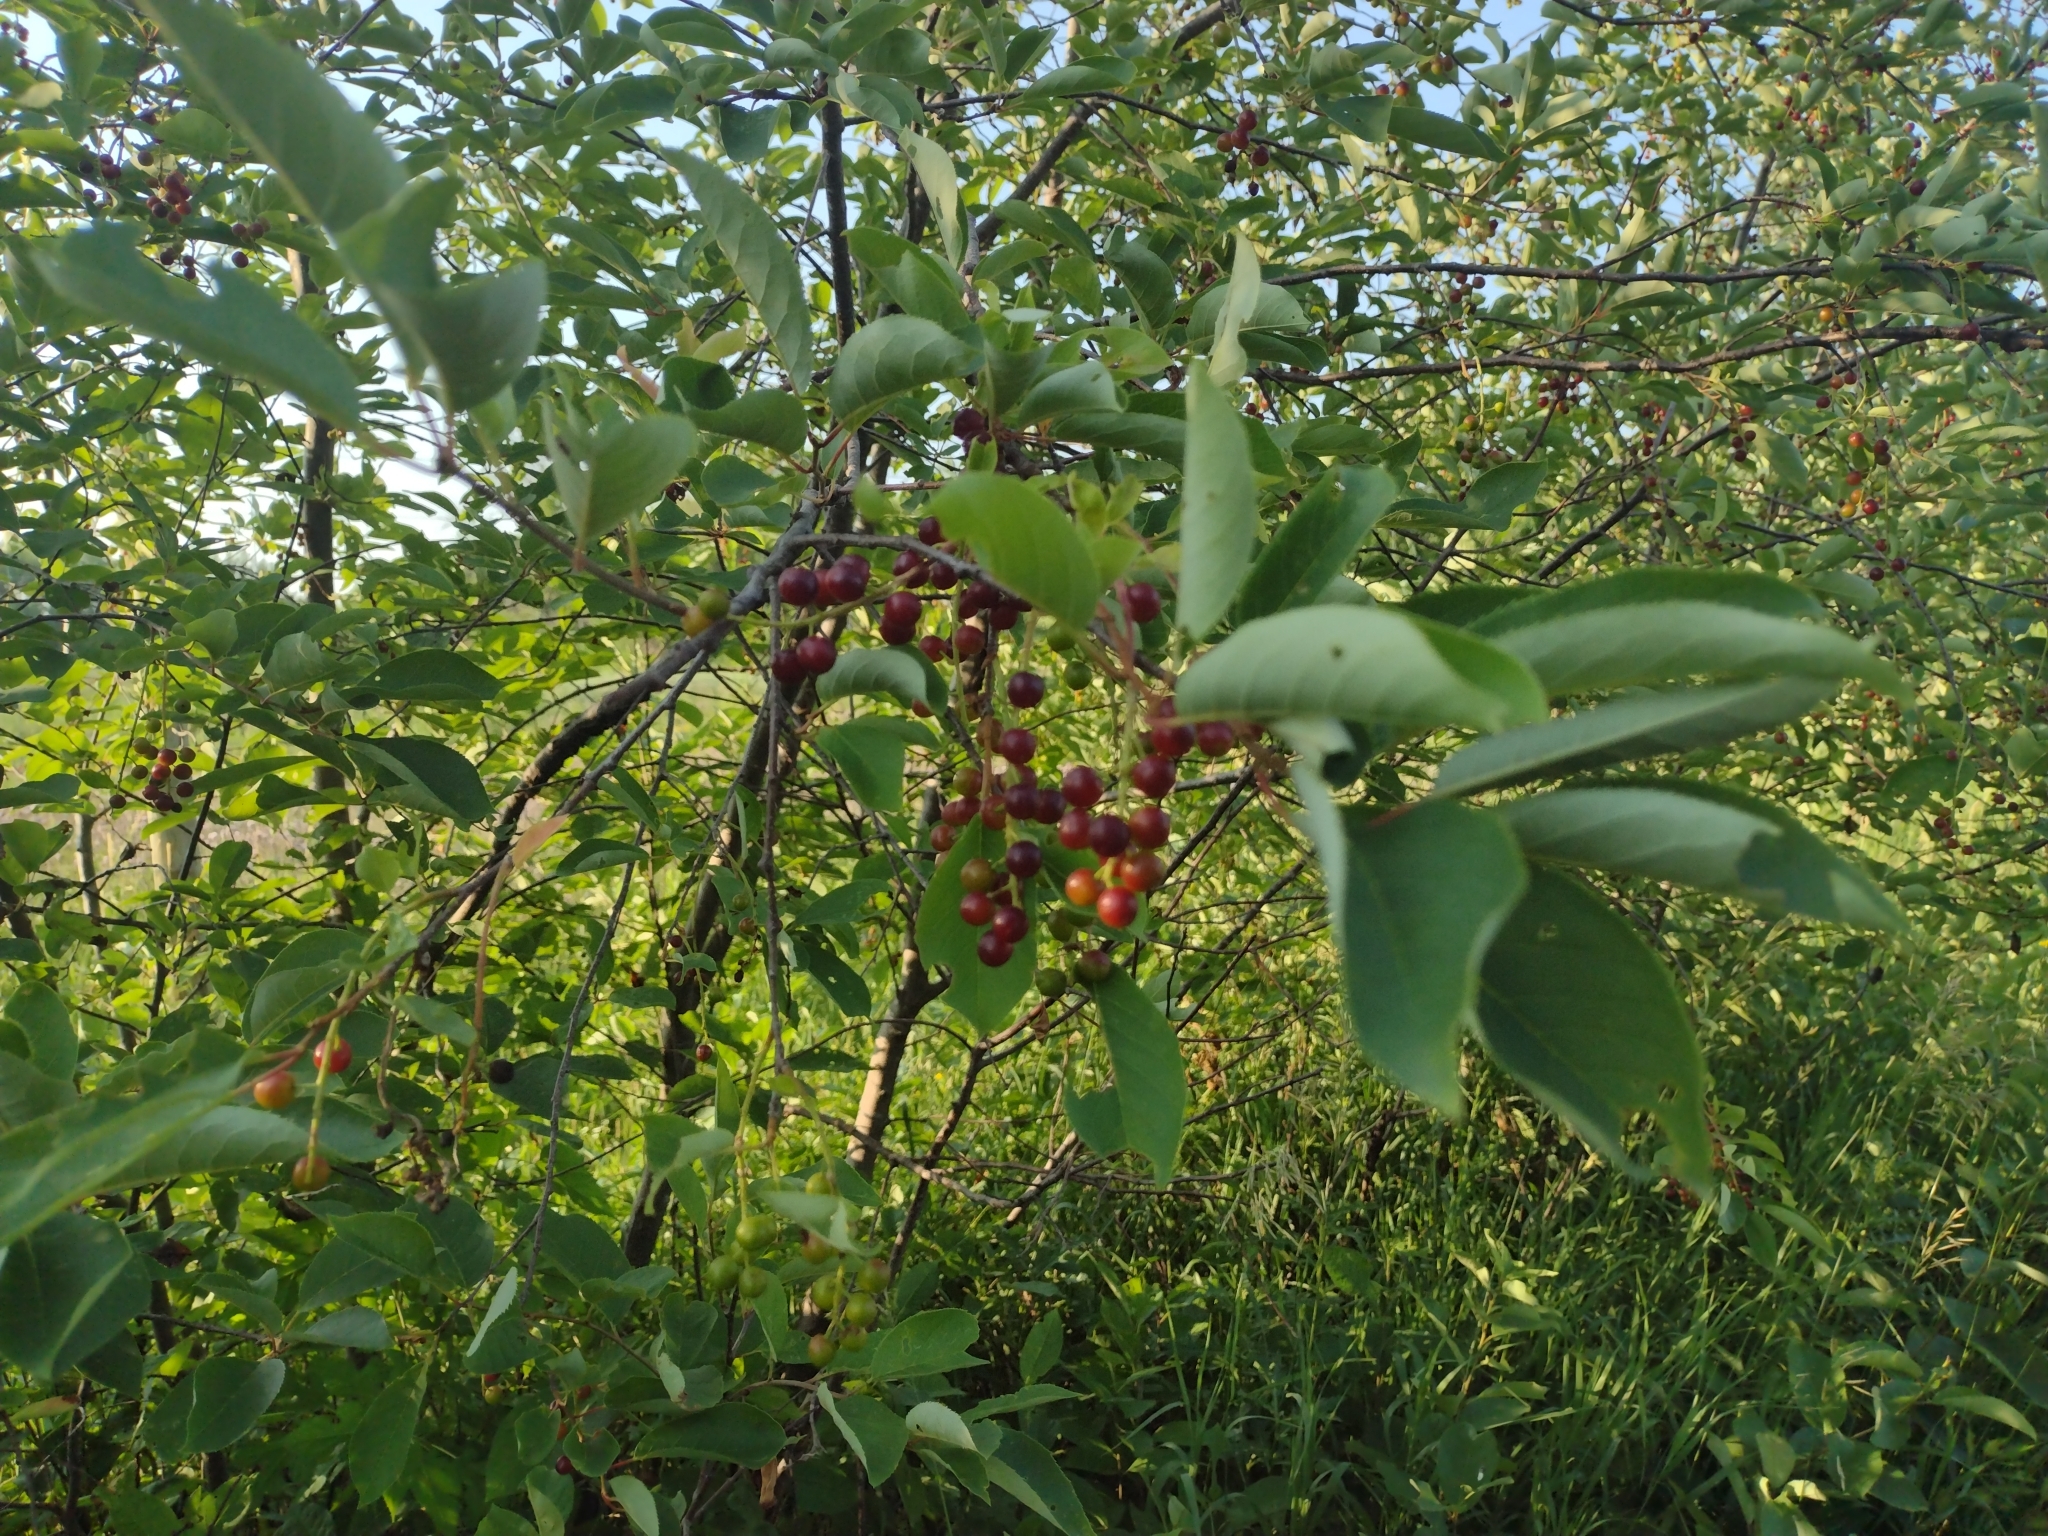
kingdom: Plantae
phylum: Tracheophyta
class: Magnoliopsida
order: Rosales
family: Rosaceae
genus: Prunus
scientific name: Prunus virginiana
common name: Chokecherry
